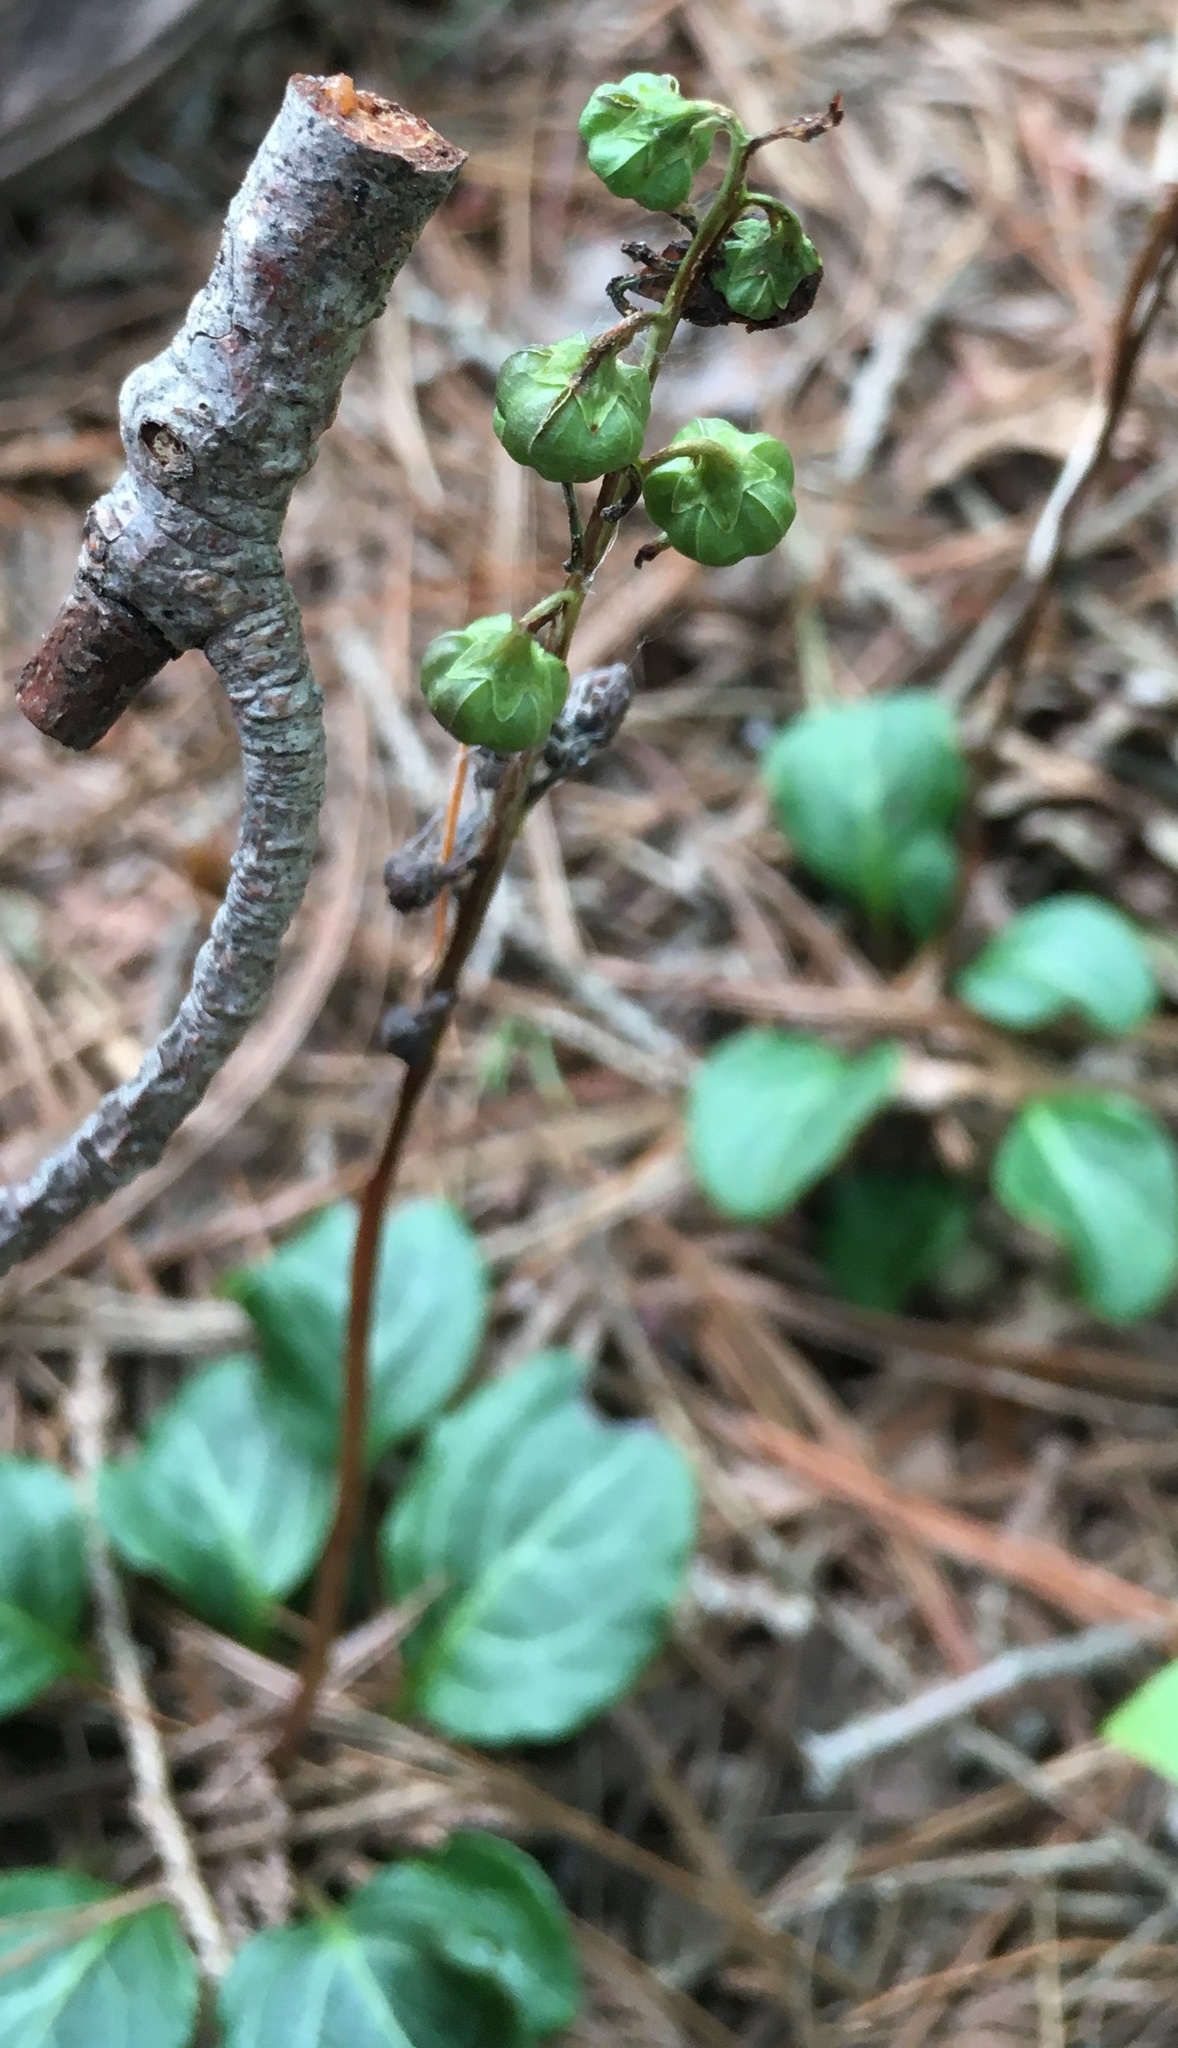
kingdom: Plantae
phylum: Tracheophyta
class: Magnoliopsida
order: Ericales
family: Ericaceae
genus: Pyrola
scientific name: Pyrola chlorantha
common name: Green wintergreen
